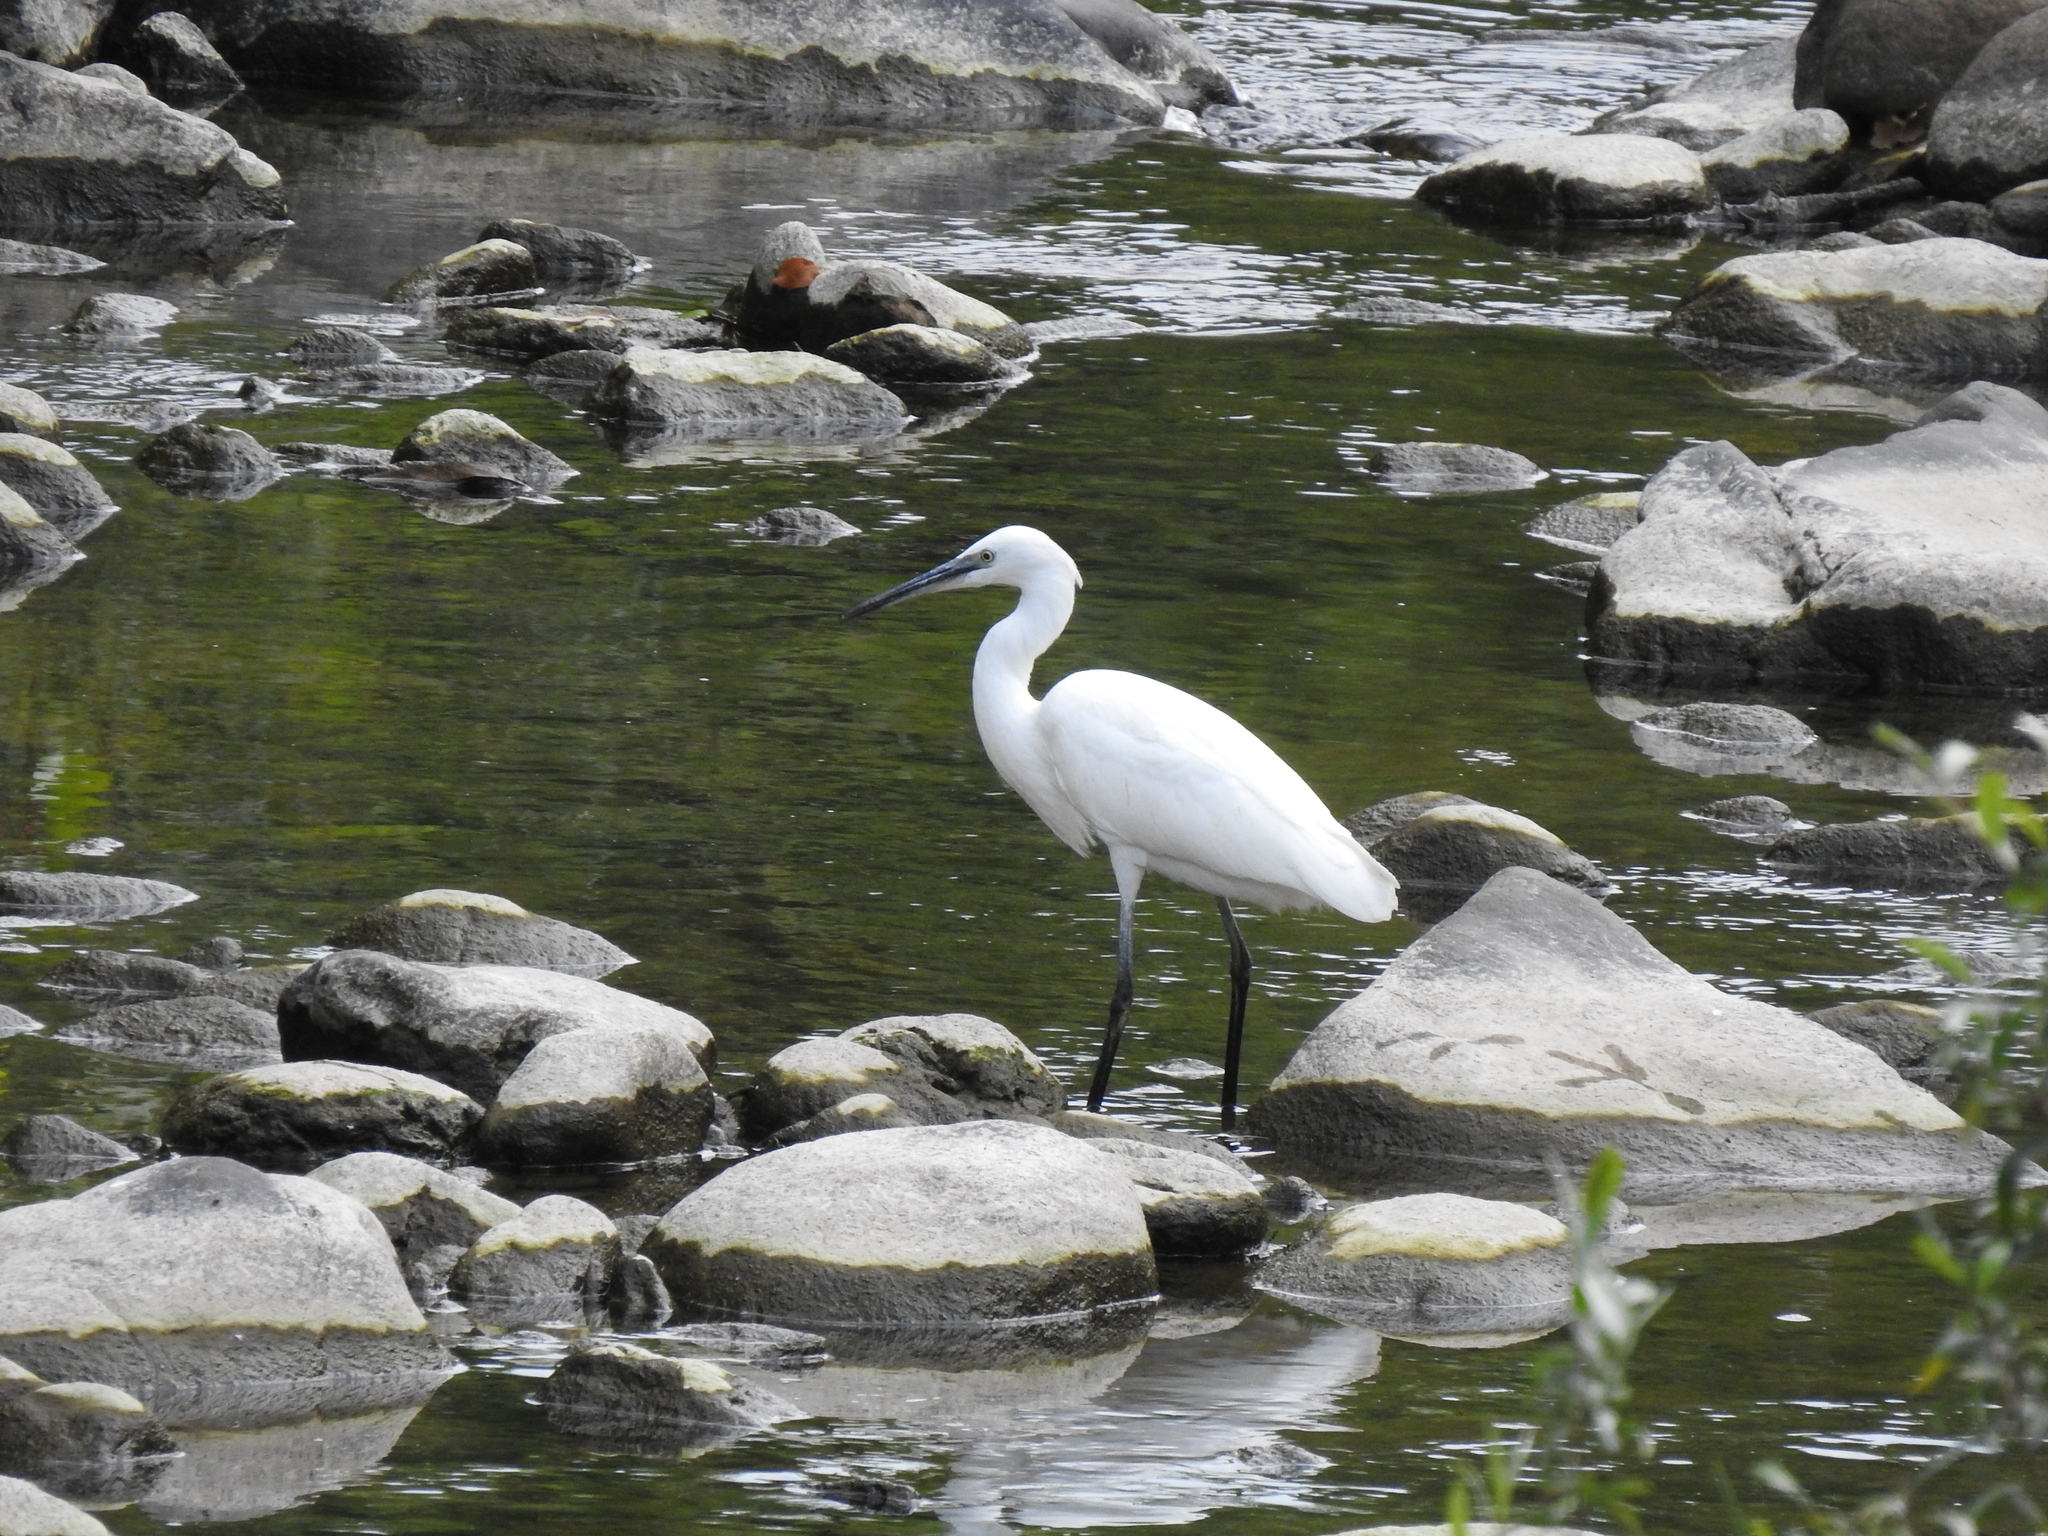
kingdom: Animalia
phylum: Chordata
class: Aves
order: Pelecaniformes
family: Ardeidae
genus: Egretta
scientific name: Egretta garzetta
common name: Little egret
